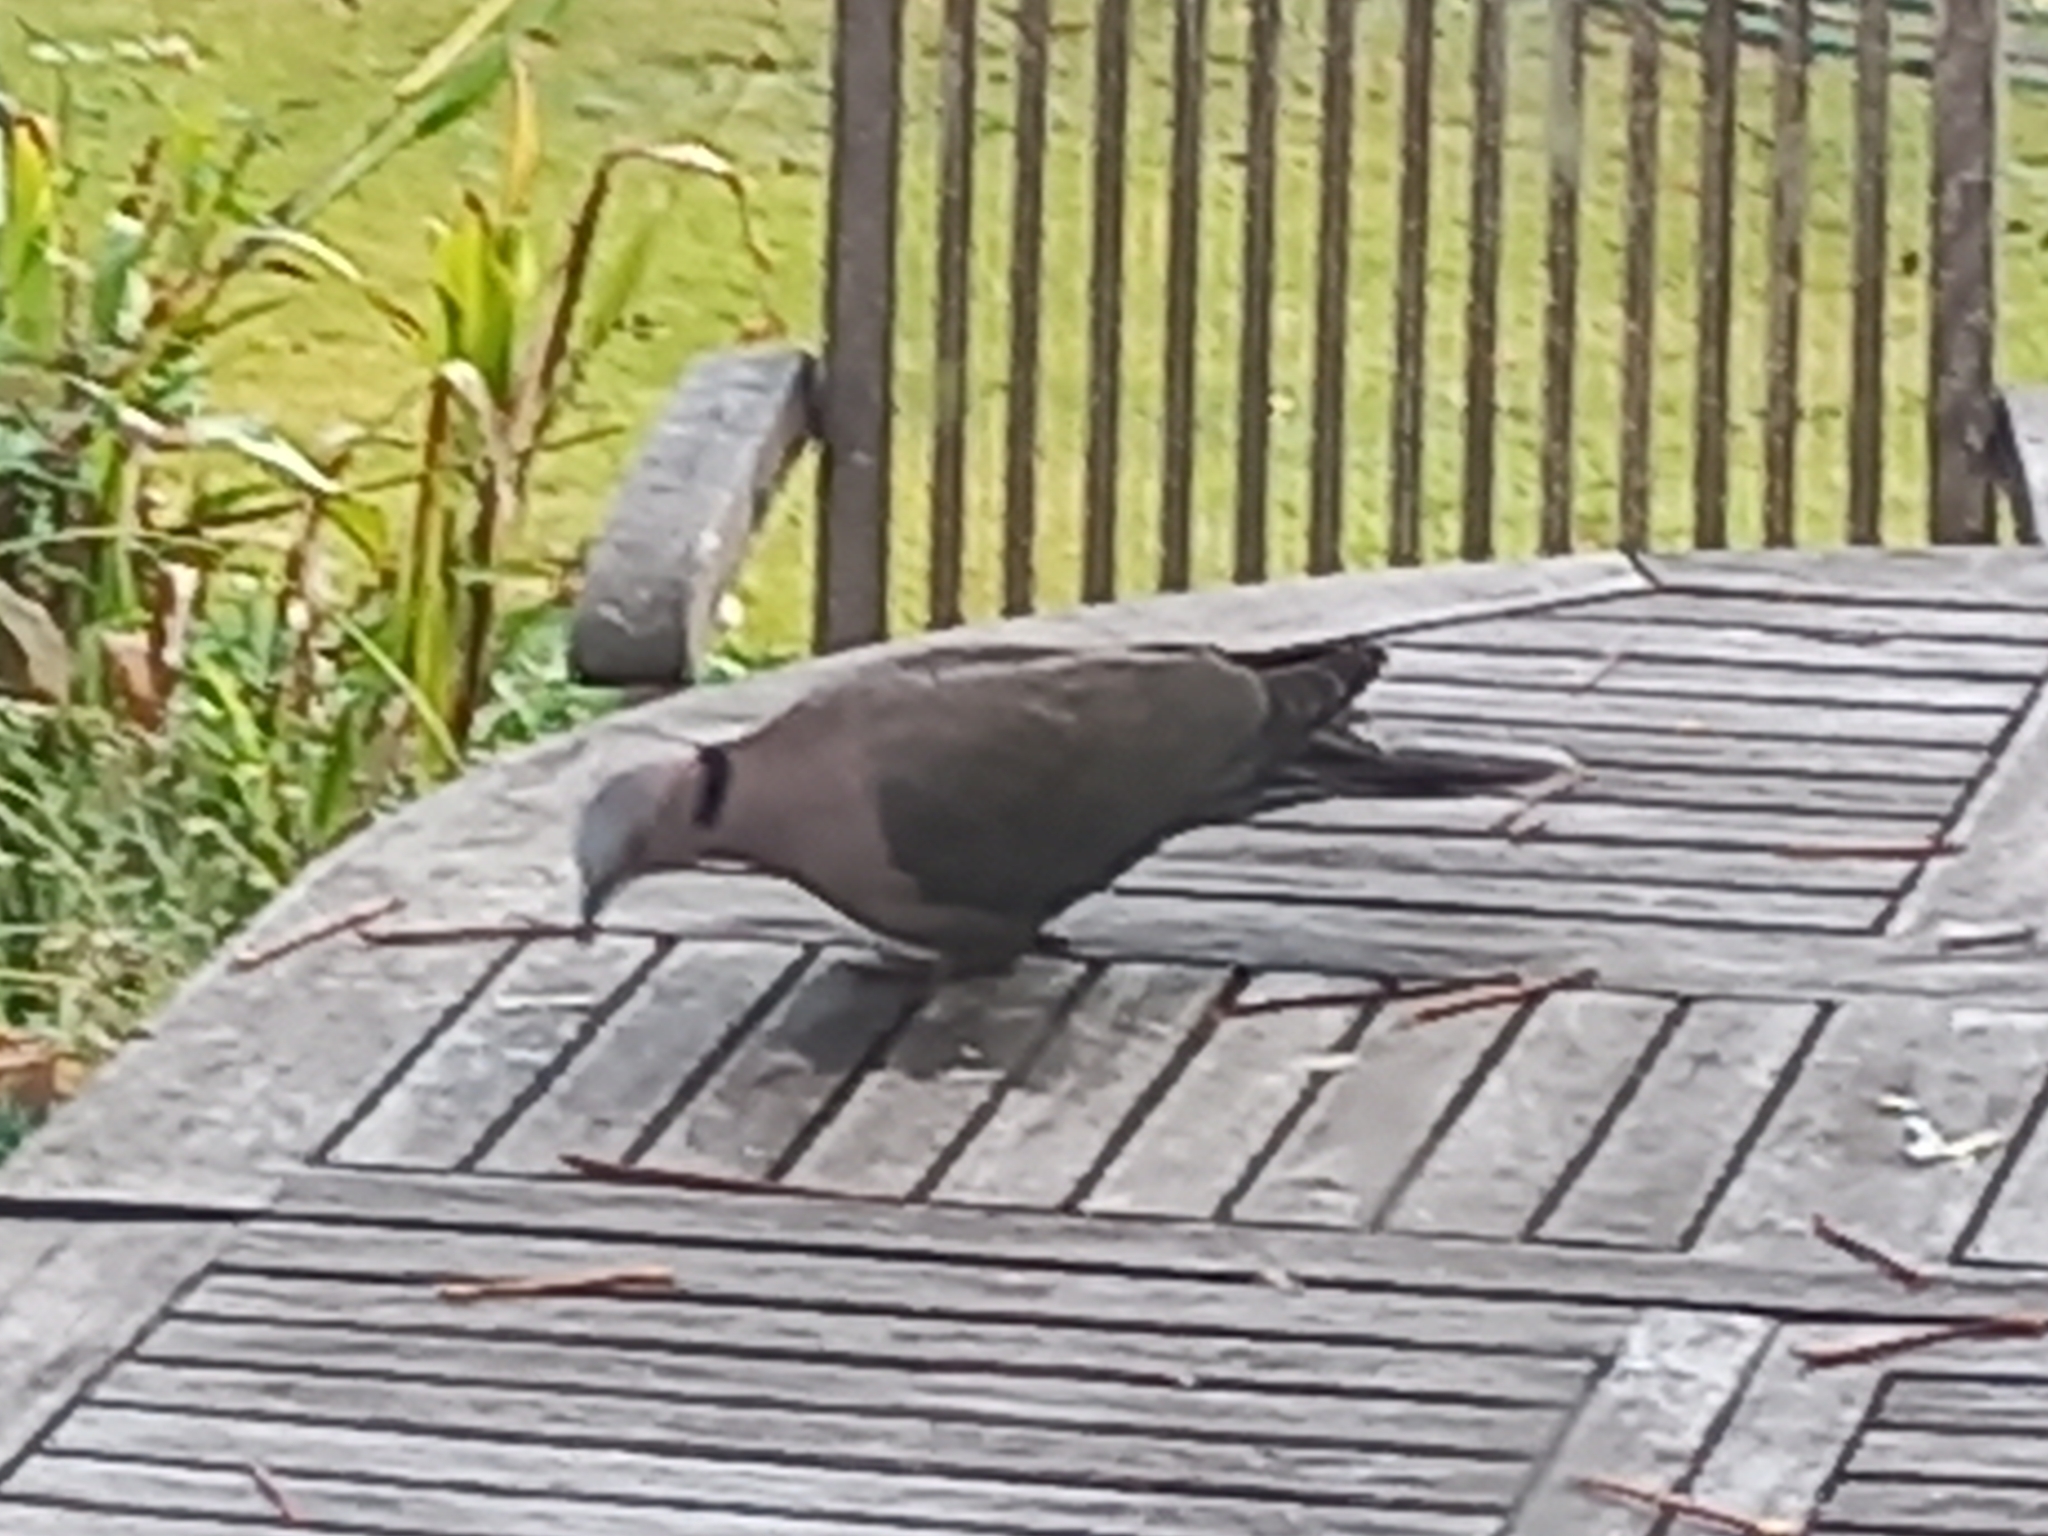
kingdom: Animalia
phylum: Chordata
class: Aves
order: Columbiformes
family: Columbidae
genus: Streptopelia
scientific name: Streptopelia semitorquata
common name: Red-eyed dove
